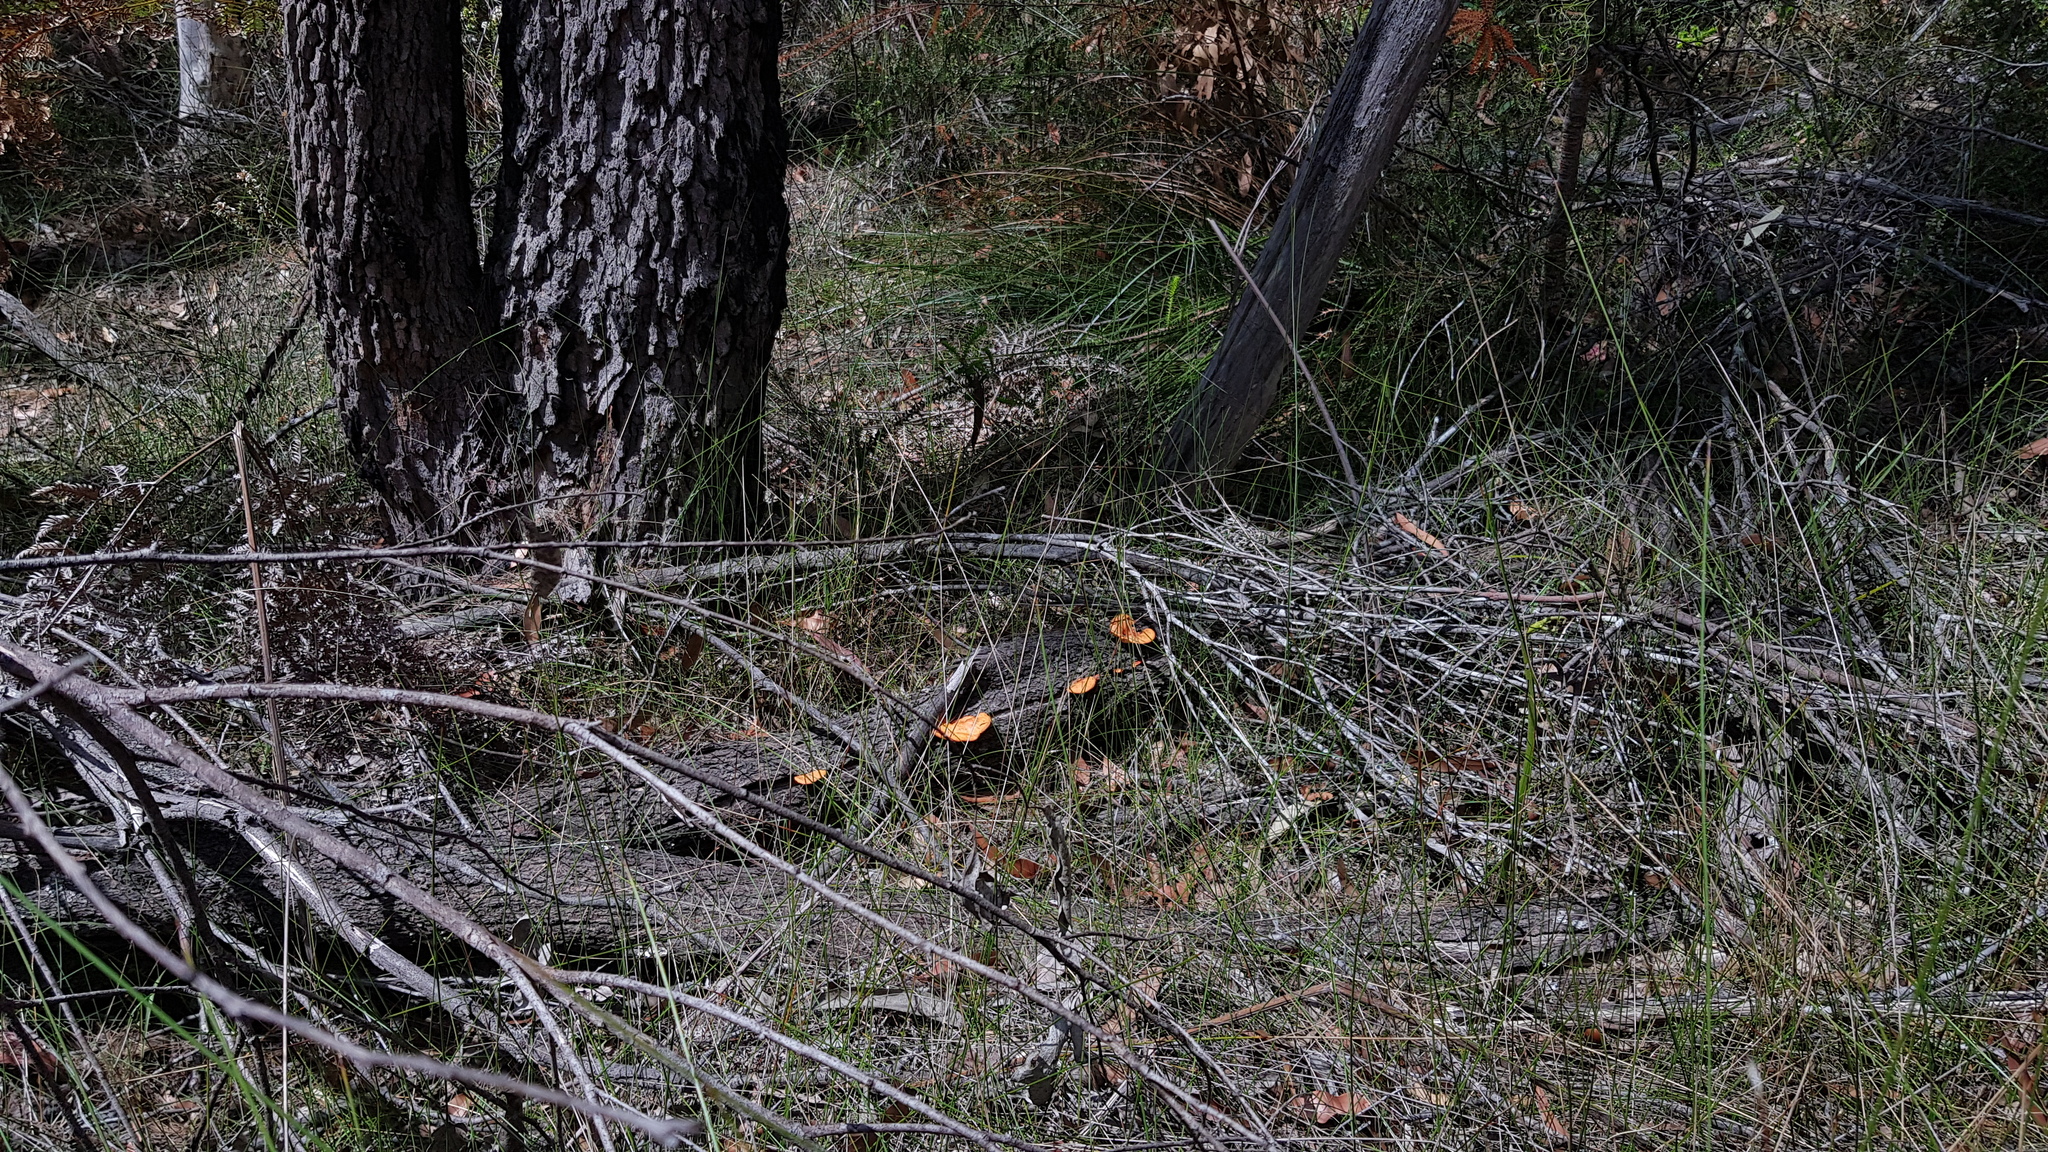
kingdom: Fungi
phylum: Basidiomycota
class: Agaricomycetes
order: Polyporales
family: Polyporaceae
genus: Trametes
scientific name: Trametes coccinea
